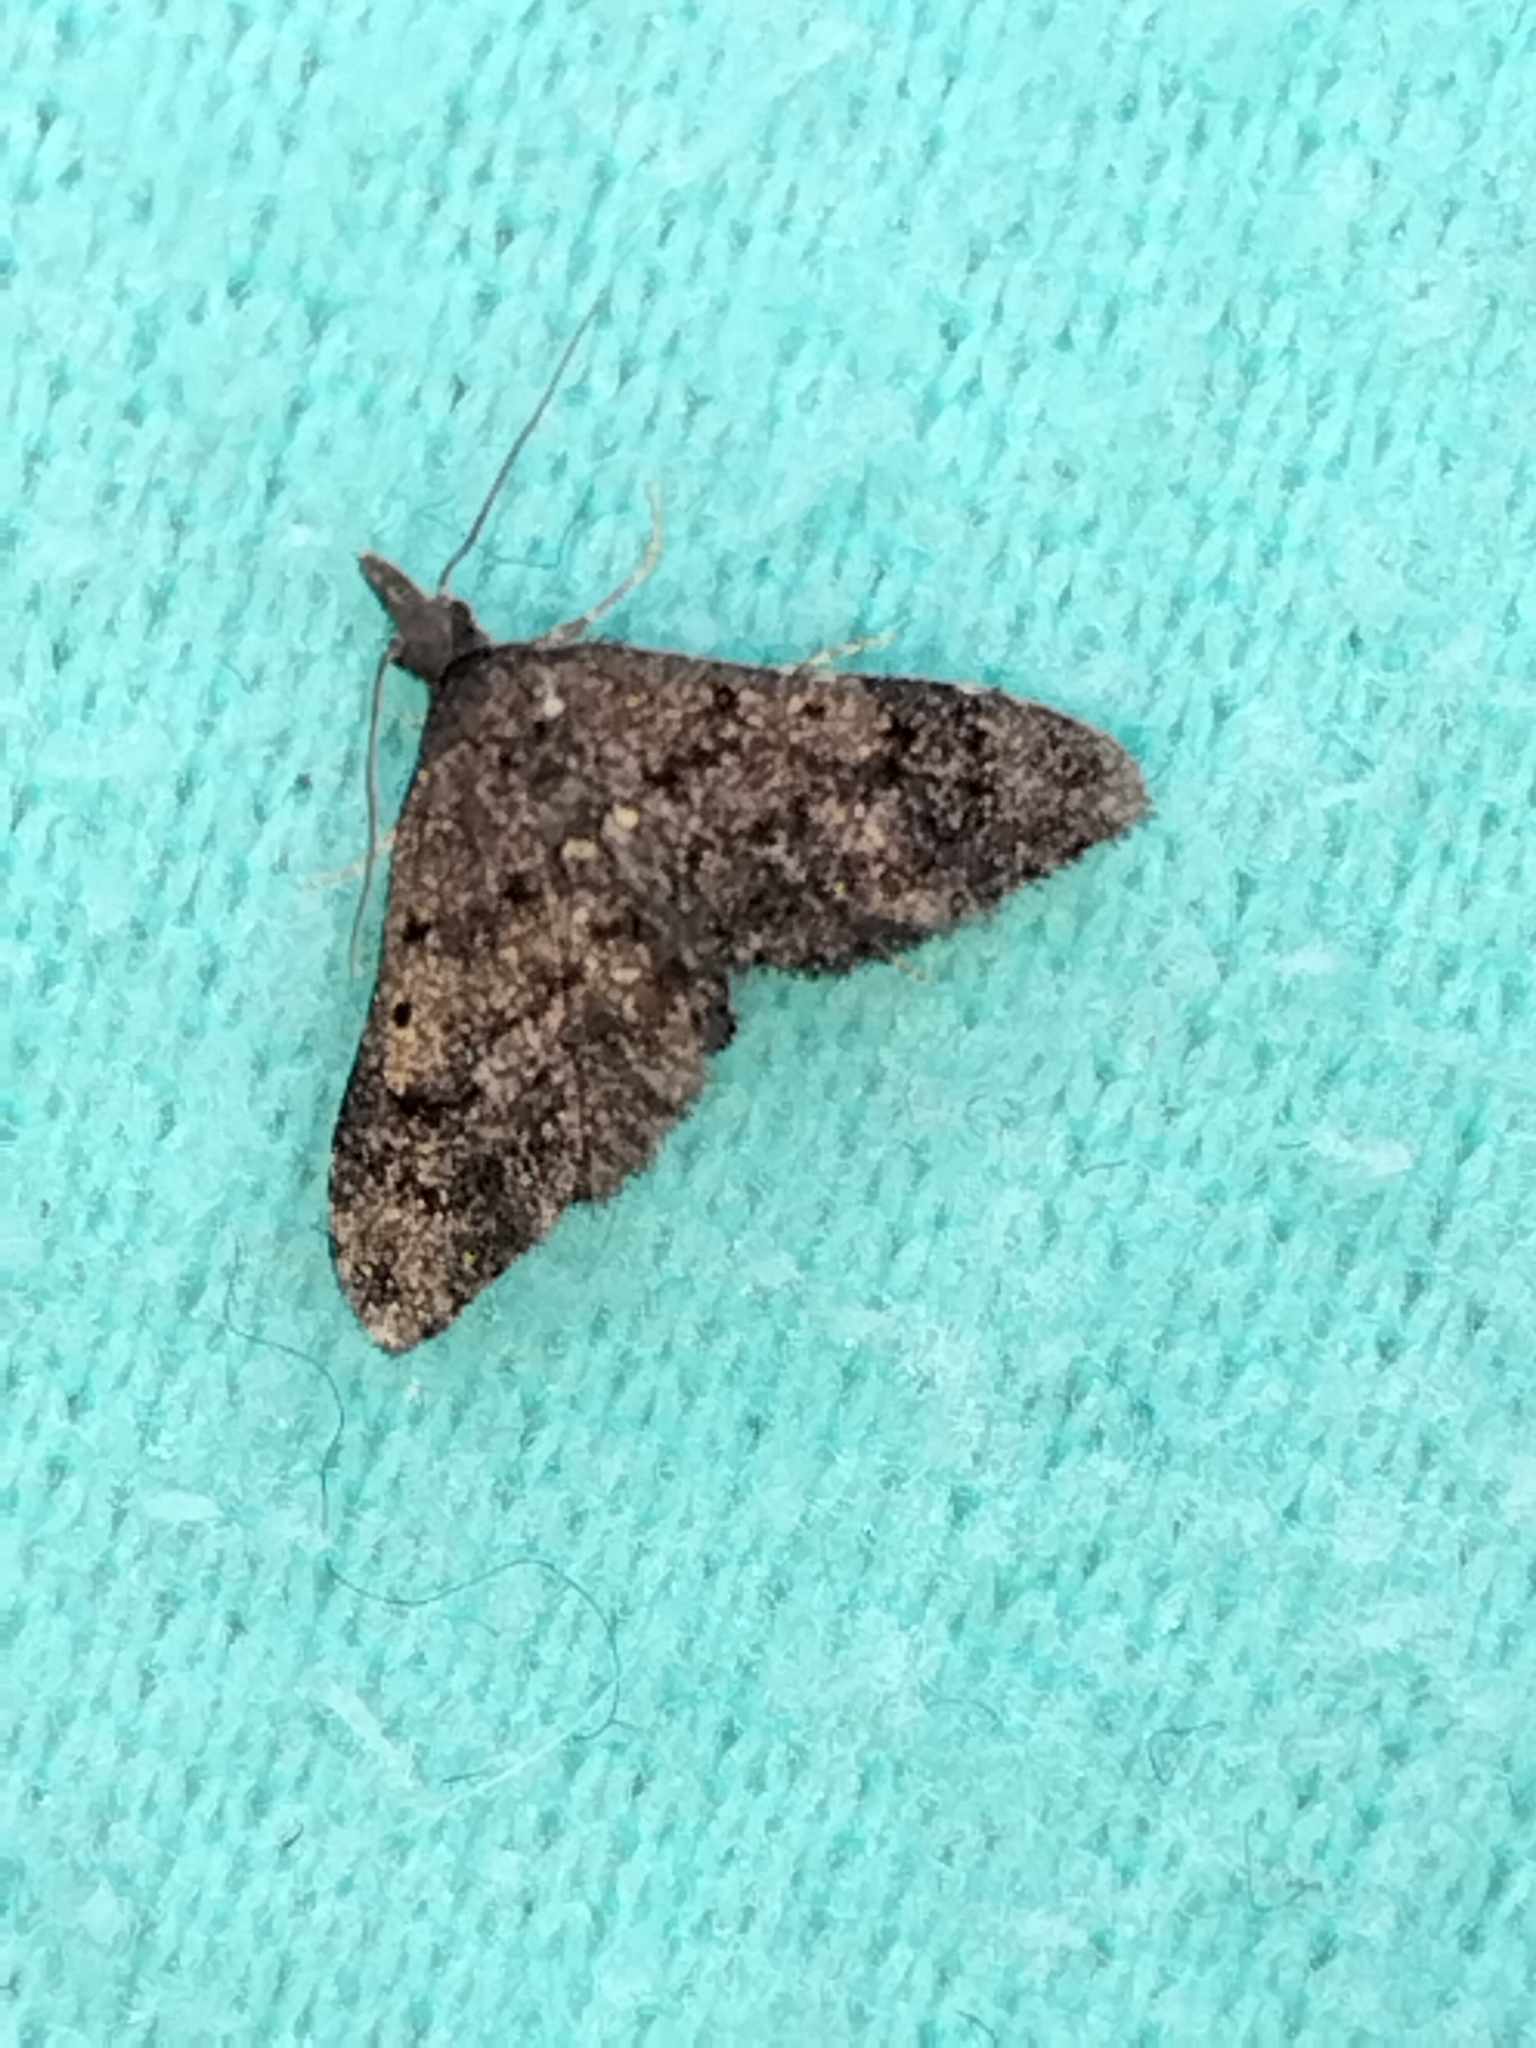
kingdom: Animalia
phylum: Arthropoda
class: Insecta
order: Lepidoptera
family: Copromorphidae
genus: Isonomeutis
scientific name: Isonomeutis amauropa
